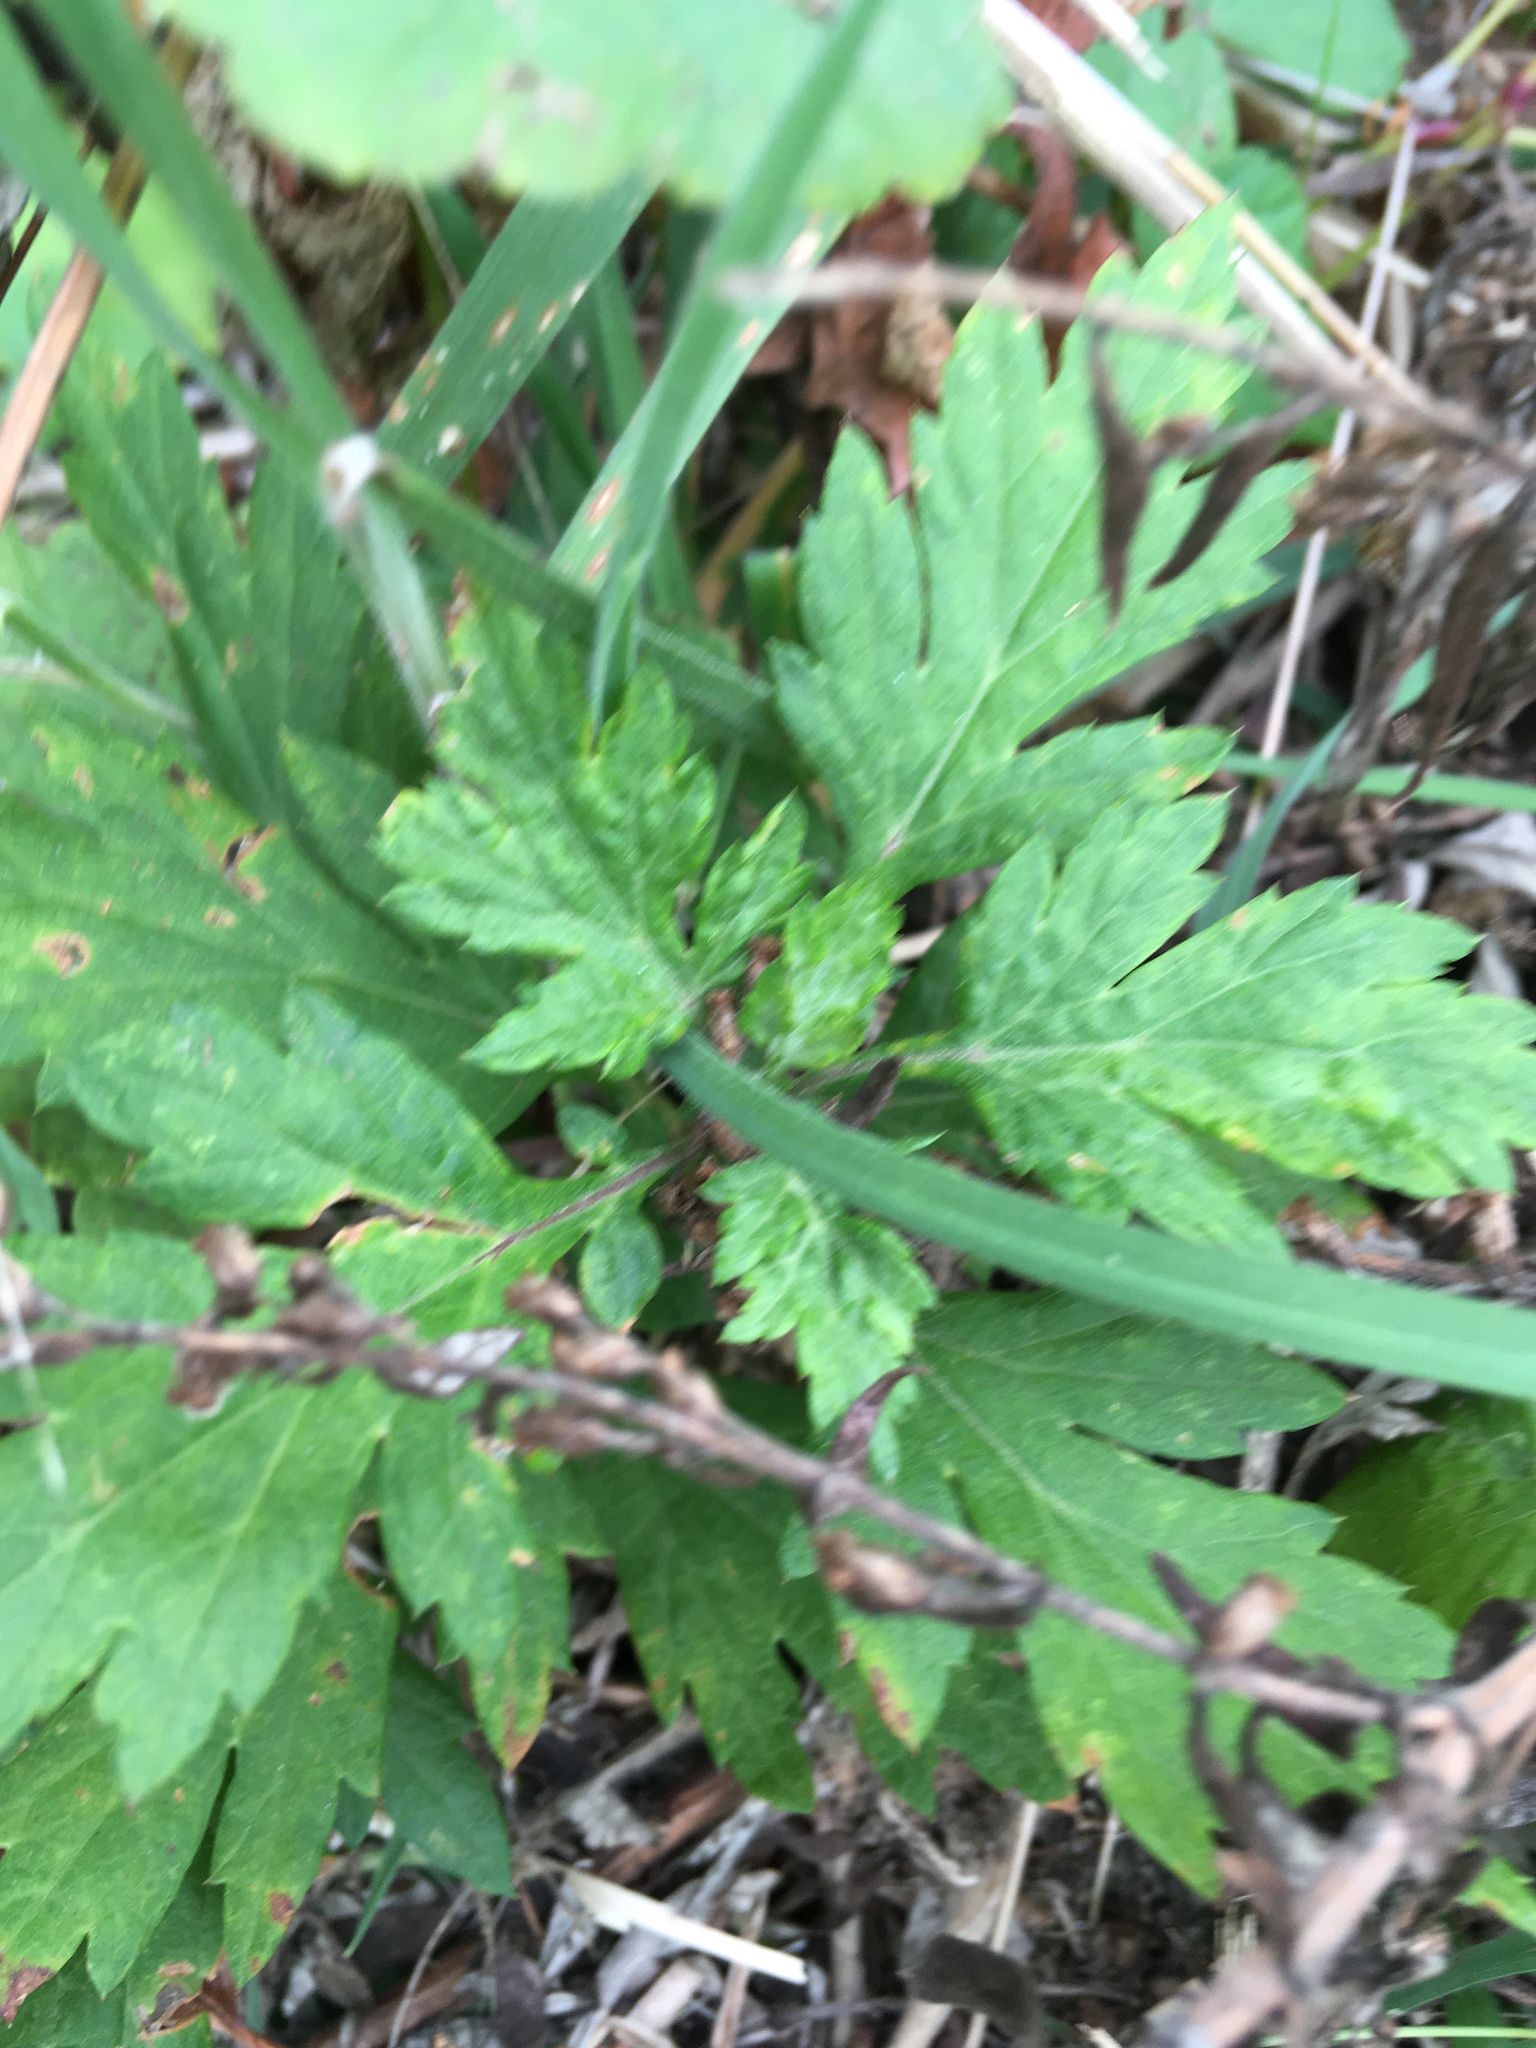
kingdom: Plantae
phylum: Tracheophyta
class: Magnoliopsida
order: Asterales
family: Asteraceae
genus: Artemisia
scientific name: Artemisia vulgaris
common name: Mugwort
